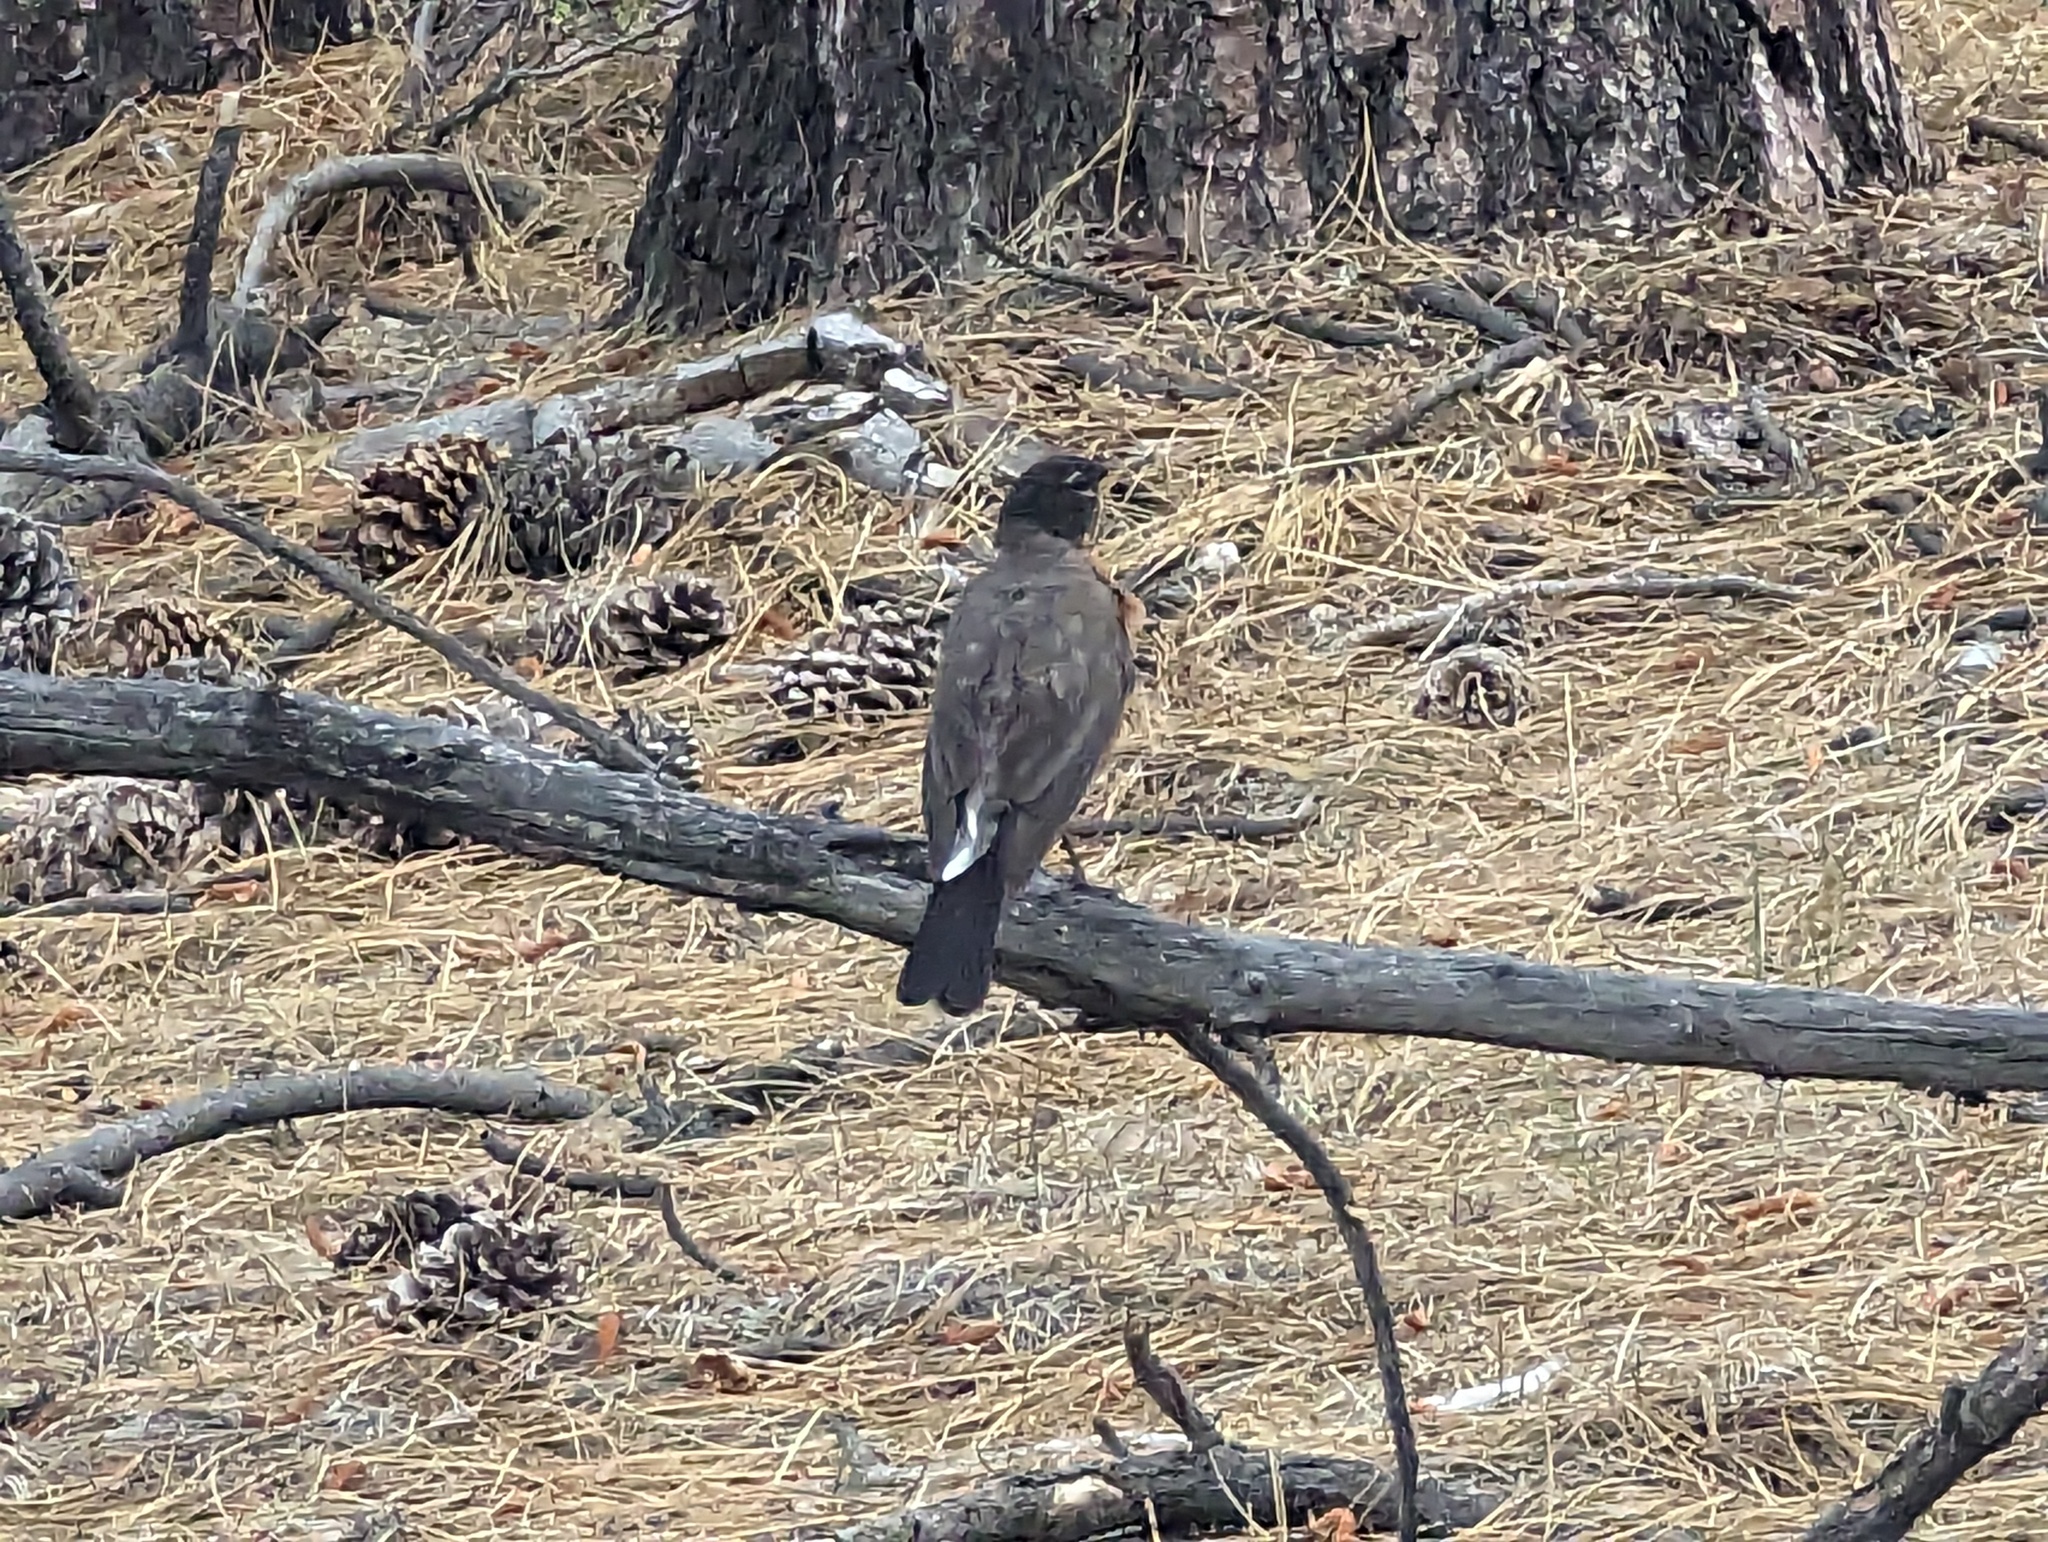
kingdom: Animalia
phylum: Chordata
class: Aves
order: Passeriformes
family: Turdidae
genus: Turdus
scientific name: Turdus migratorius
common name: American robin
